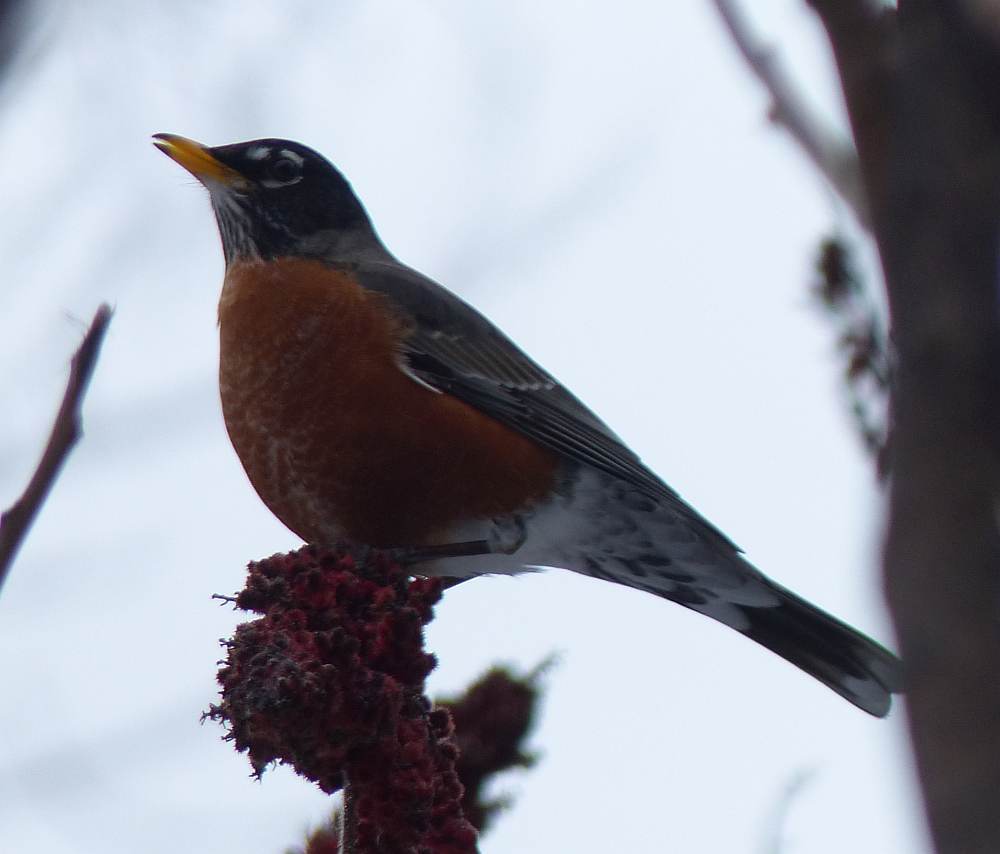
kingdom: Animalia
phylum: Chordata
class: Aves
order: Passeriformes
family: Turdidae
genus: Turdus
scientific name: Turdus migratorius
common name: American robin
